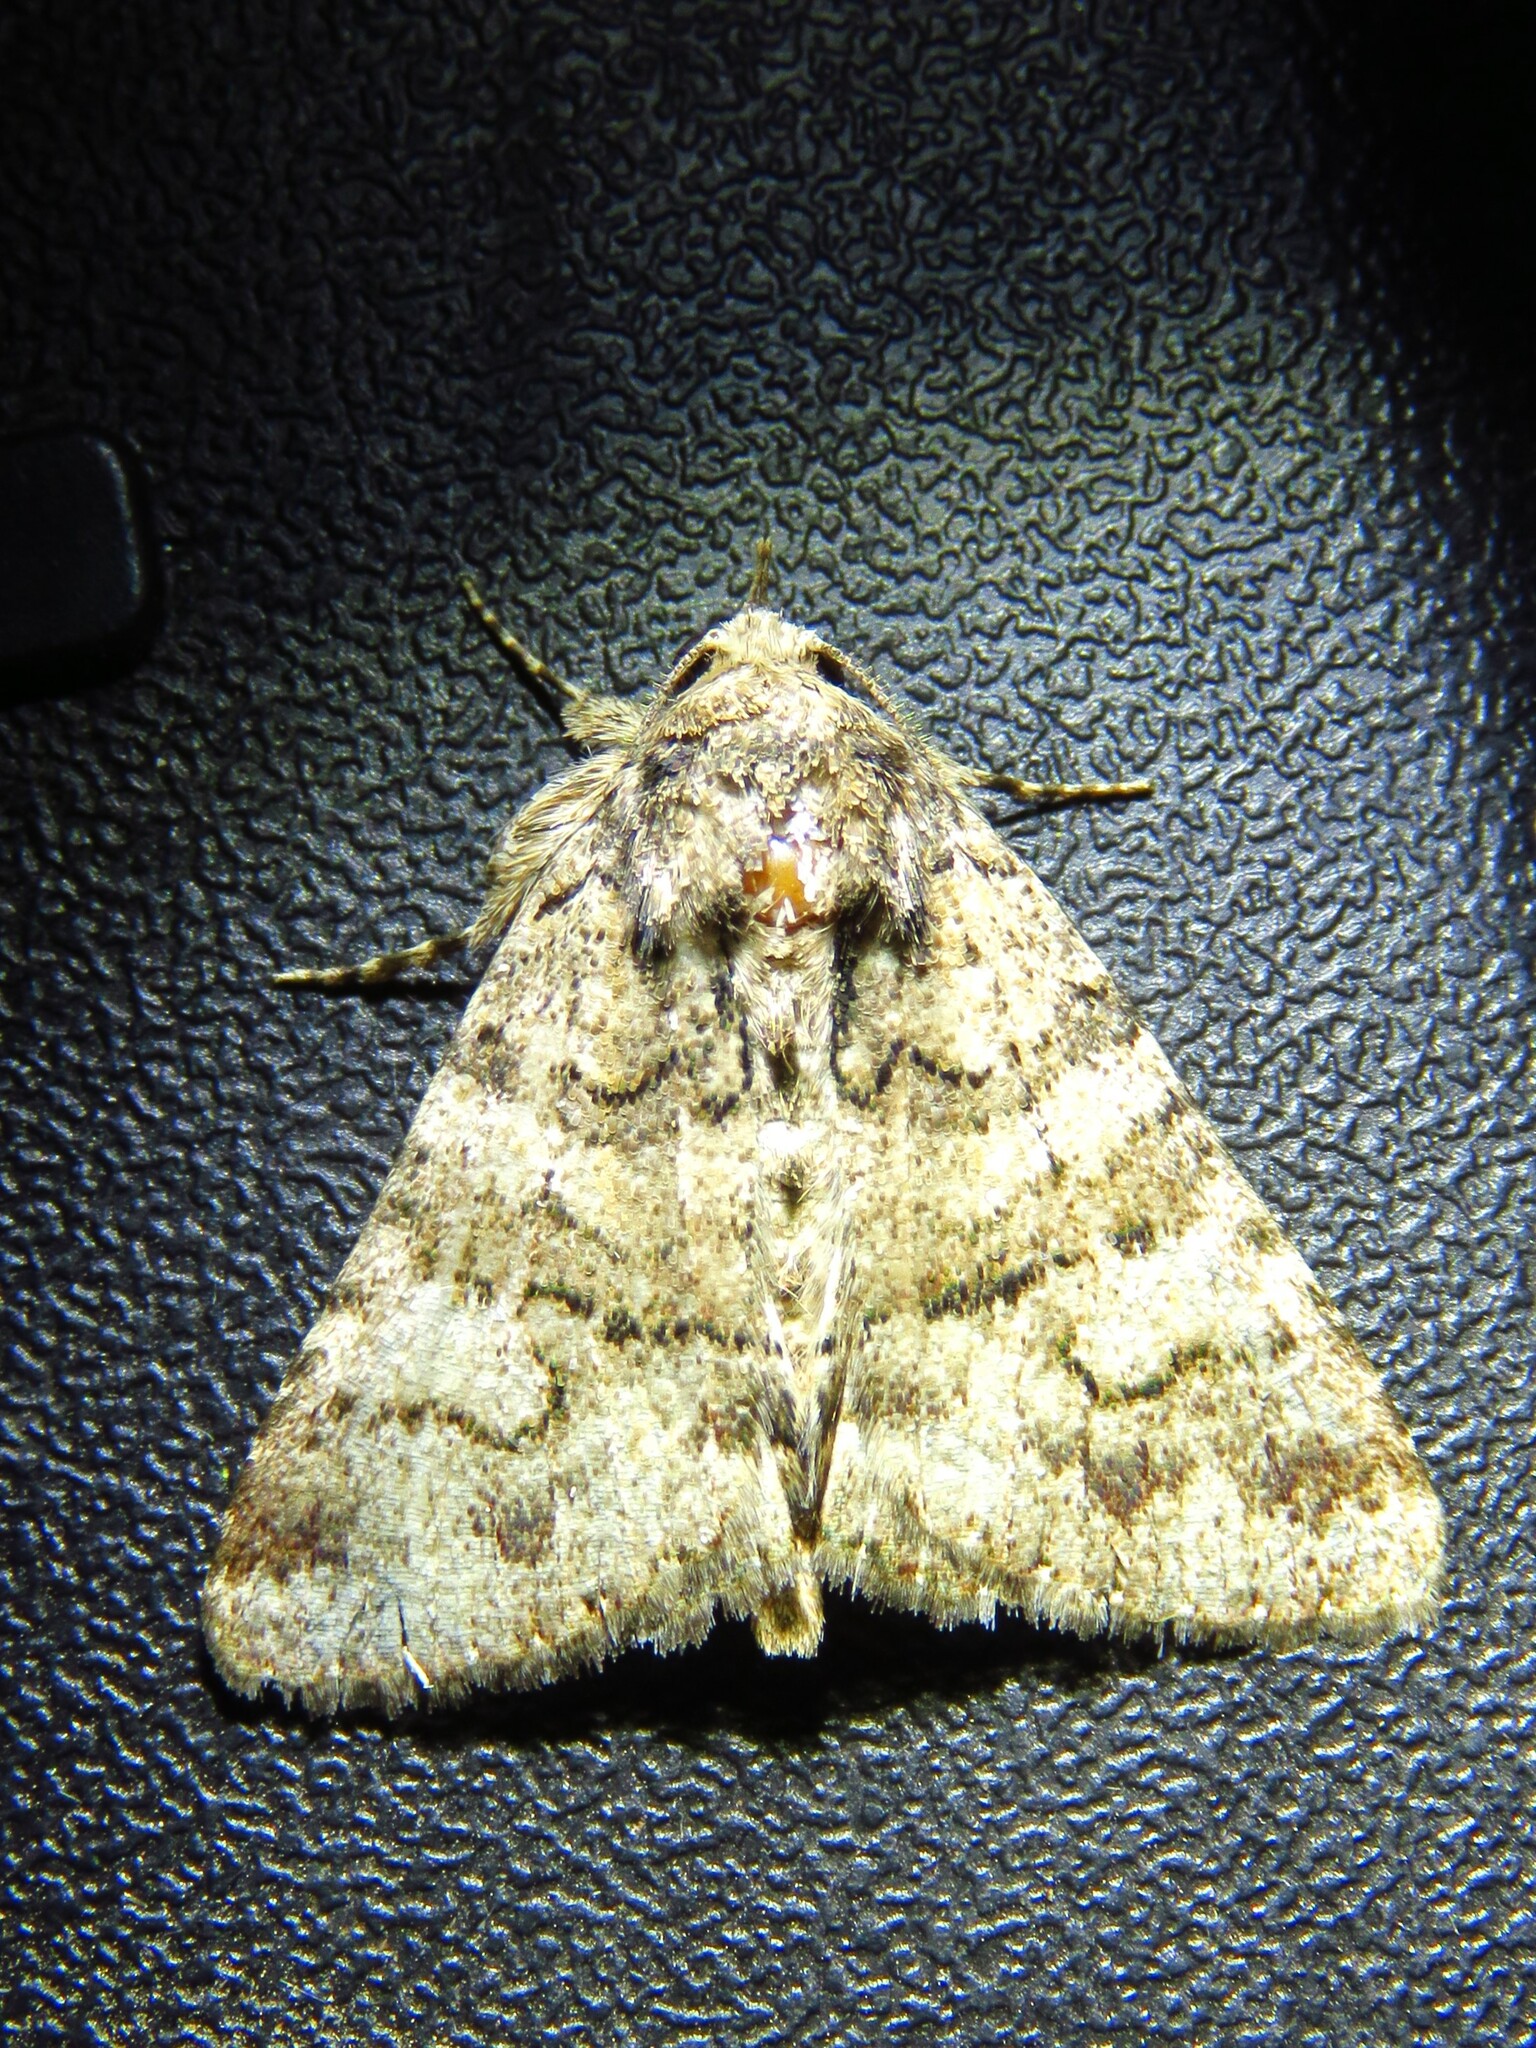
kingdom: Animalia
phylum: Arthropoda
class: Insecta
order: Lepidoptera
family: Erebidae
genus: Elousa
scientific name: Elousa mima
